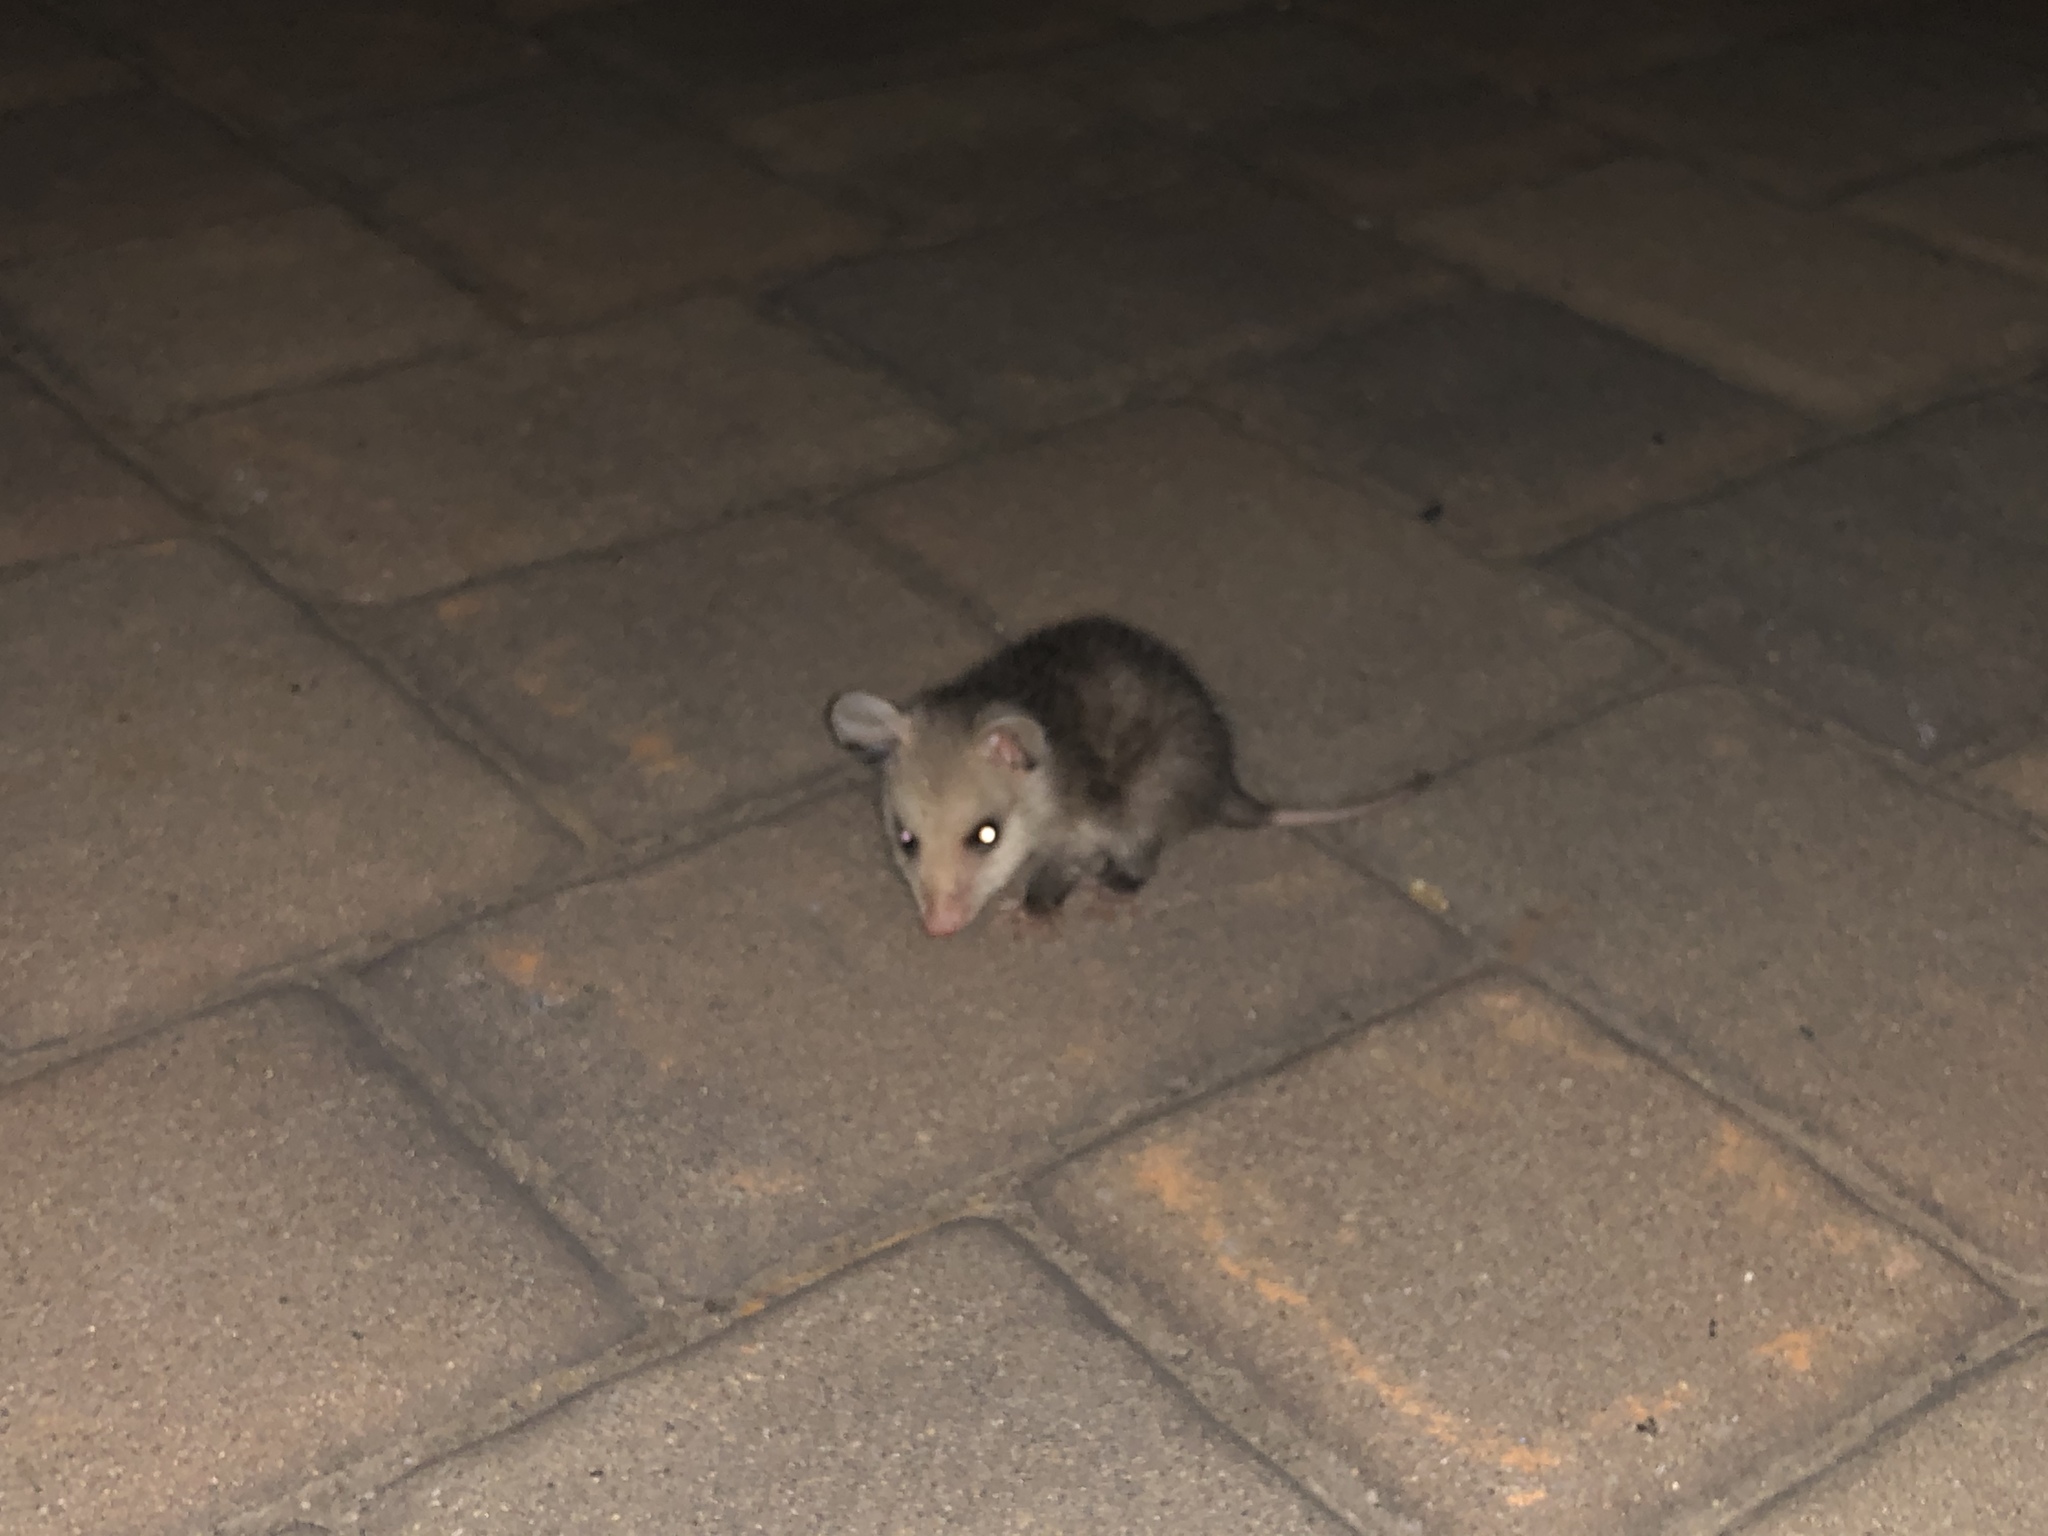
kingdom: Animalia
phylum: Chordata
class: Mammalia
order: Didelphimorphia
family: Didelphidae
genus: Didelphis
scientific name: Didelphis virginiana
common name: Virginia opossum
